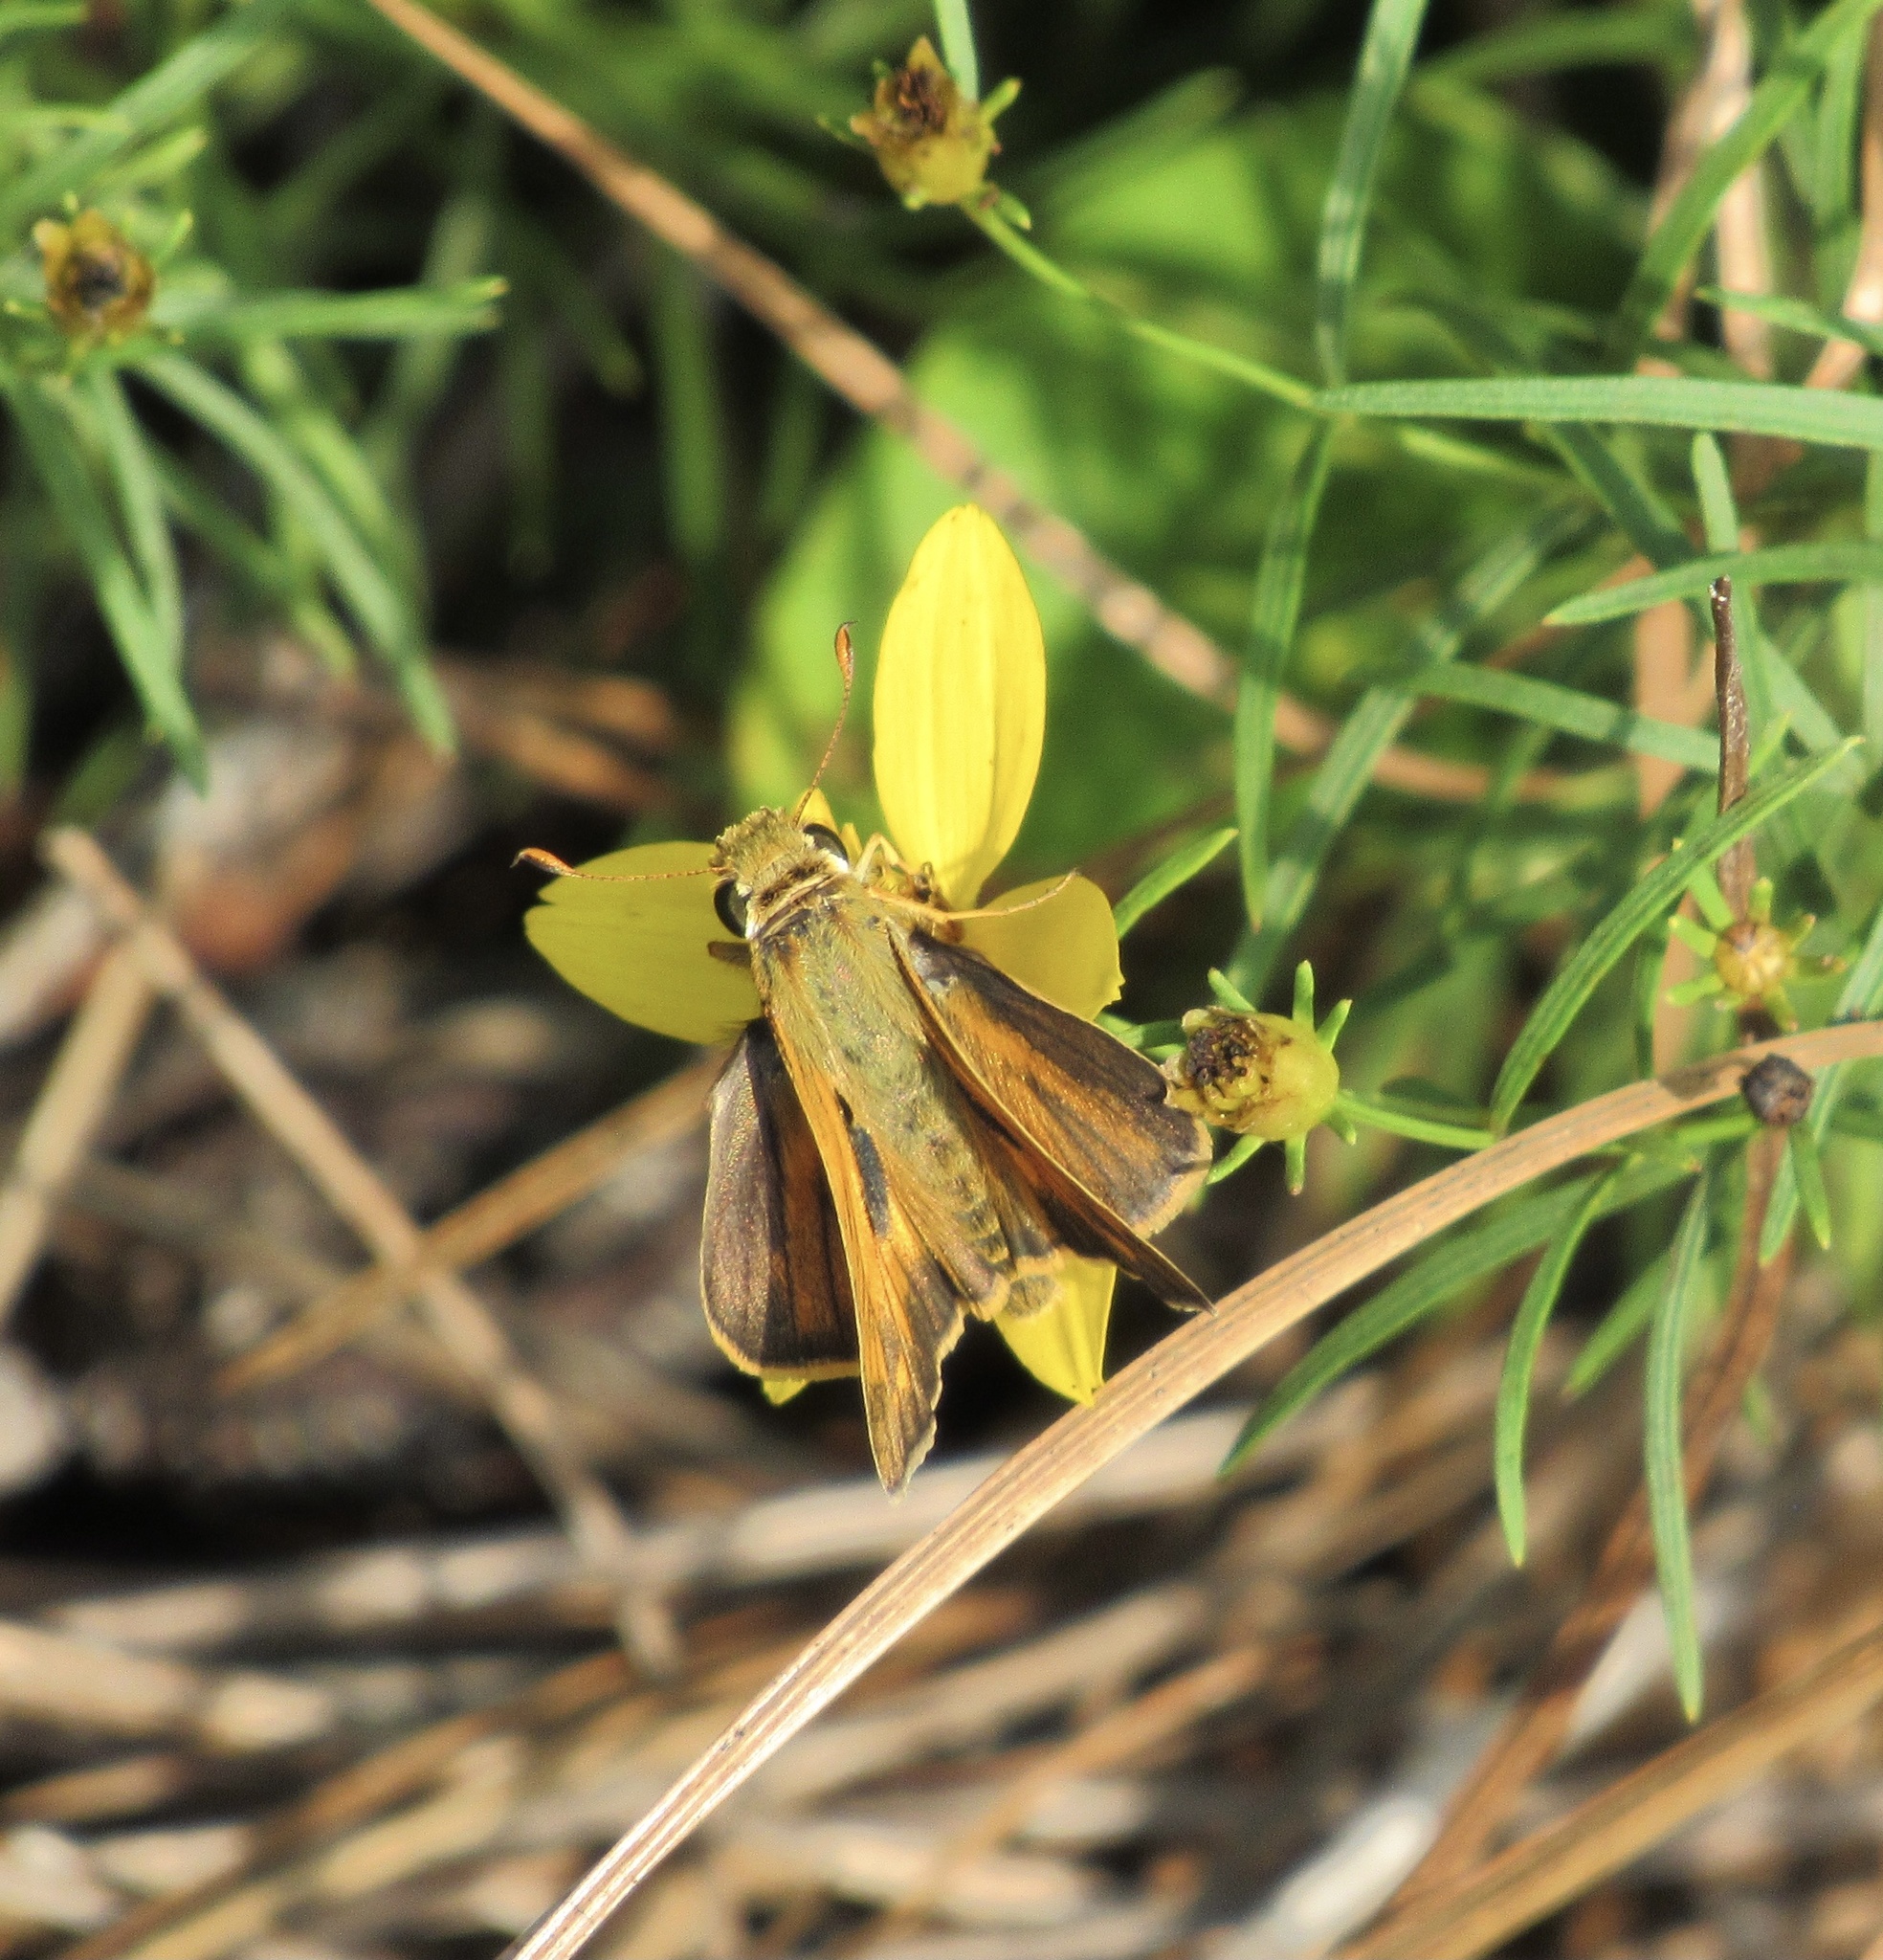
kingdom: Animalia
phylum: Arthropoda
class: Insecta
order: Lepidoptera
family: Hesperiidae
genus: Atalopedes
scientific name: Atalopedes
